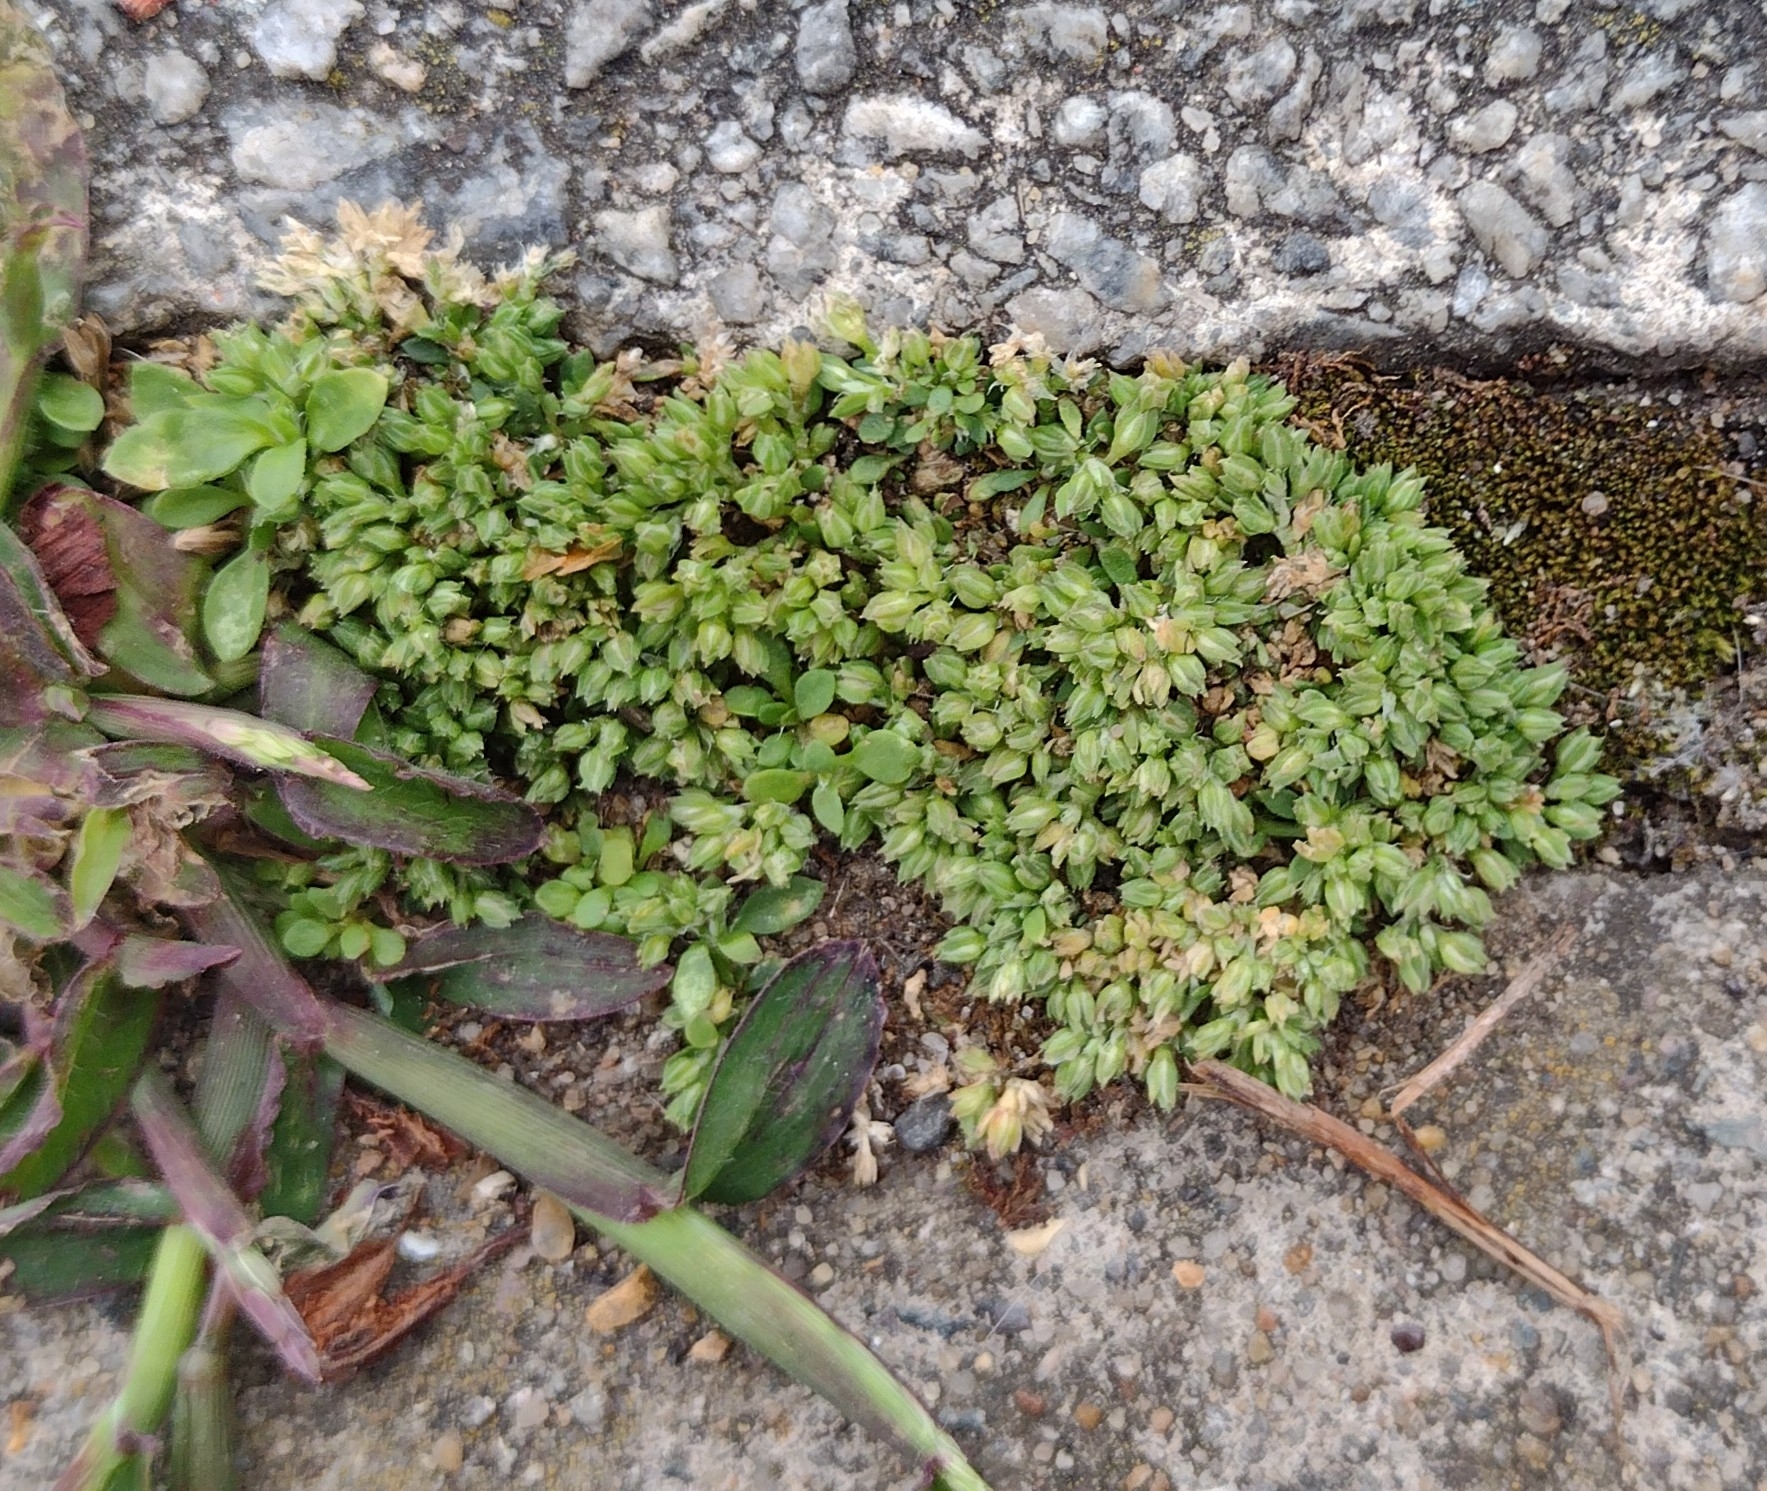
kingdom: Plantae
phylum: Tracheophyta
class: Magnoliopsida
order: Caryophyllales
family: Caryophyllaceae
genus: Polycarpon
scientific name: Polycarpon tetraphyllum
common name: Four-leaved all-seed
